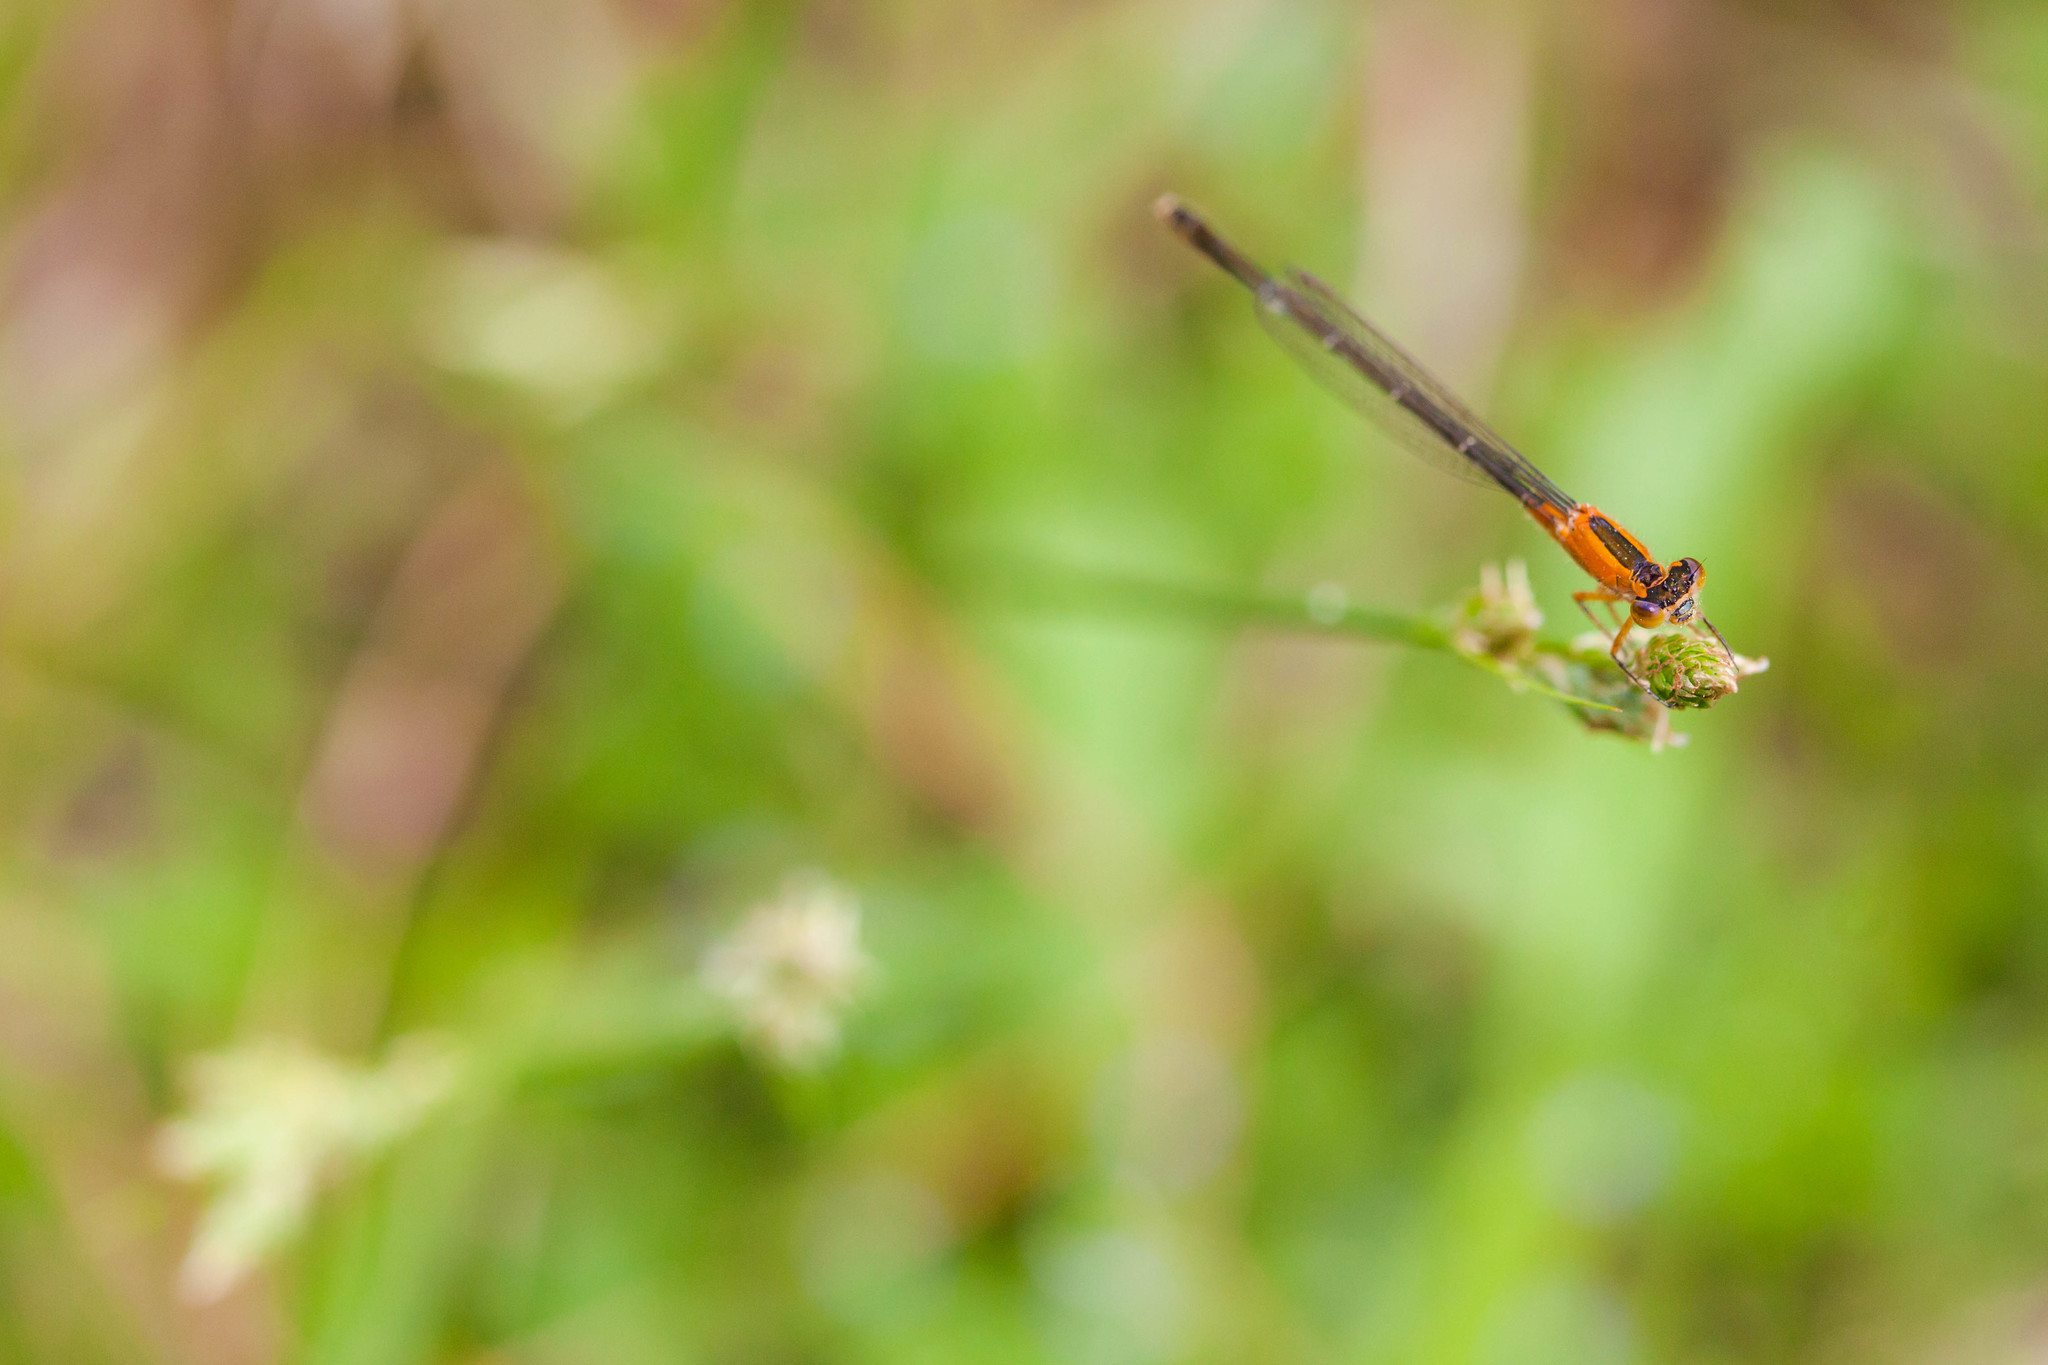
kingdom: Animalia
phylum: Arthropoda
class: Insecta
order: Odonata
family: Coenagrionidae
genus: Ischnura
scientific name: Ischnura ramburii
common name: Rambur's forktail
